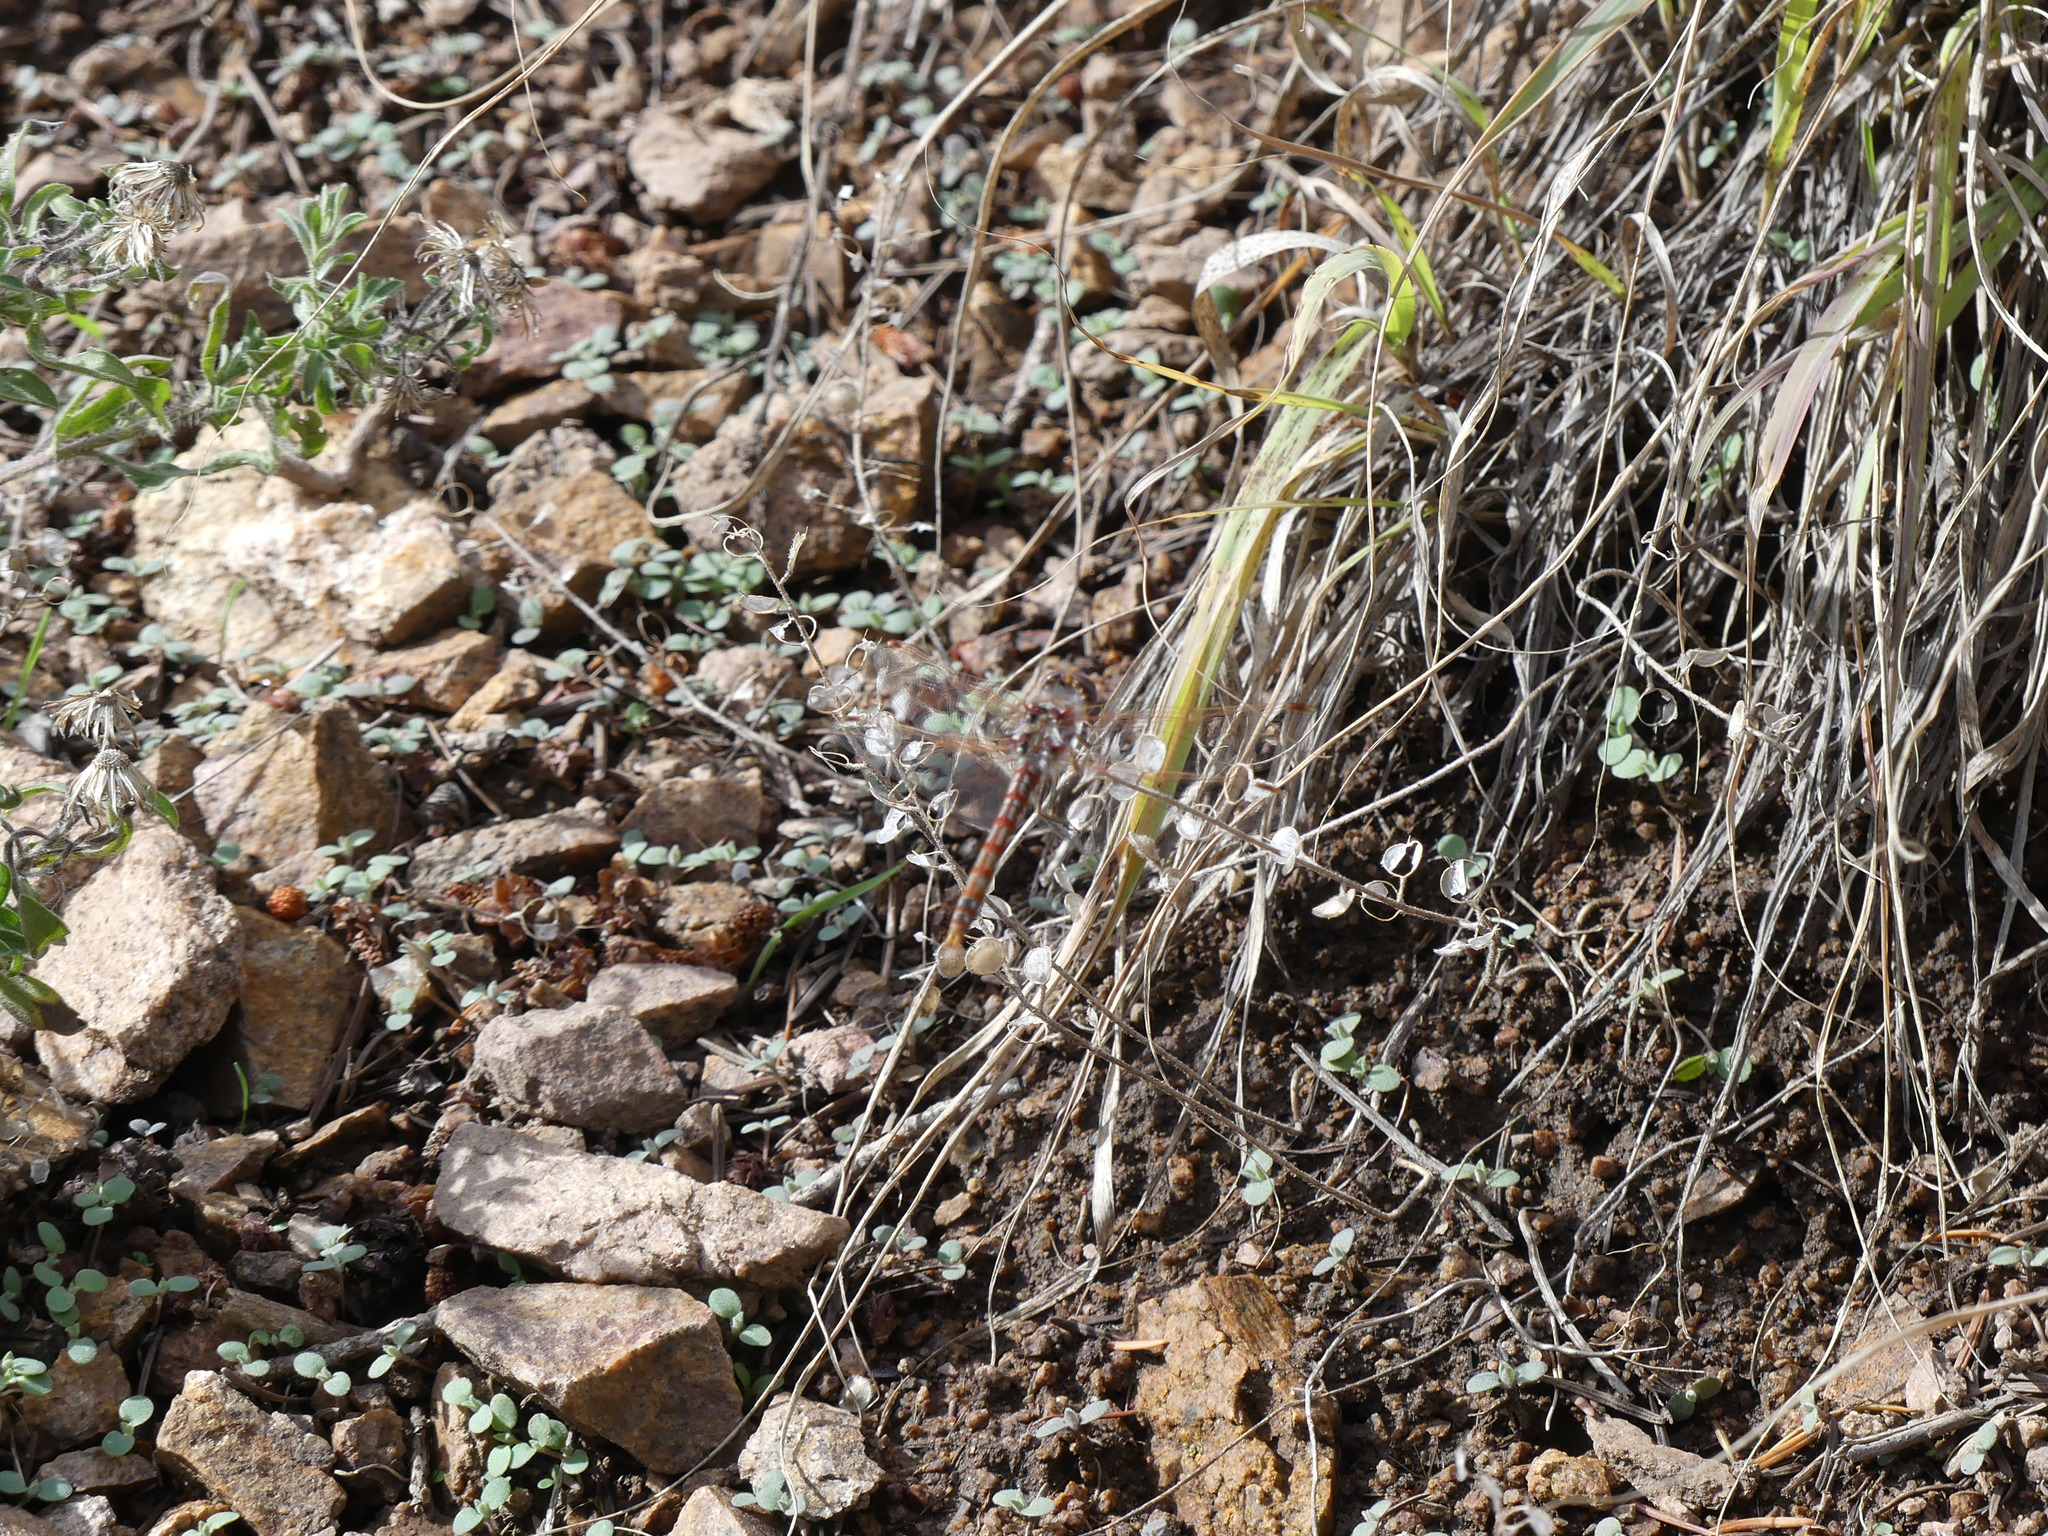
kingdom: Animalia
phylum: Arthropoda
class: Insecta
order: Odonata
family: Libellulidae
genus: Sympetrum
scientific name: Sympetrum corruptum
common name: Variegated meadowhawk
